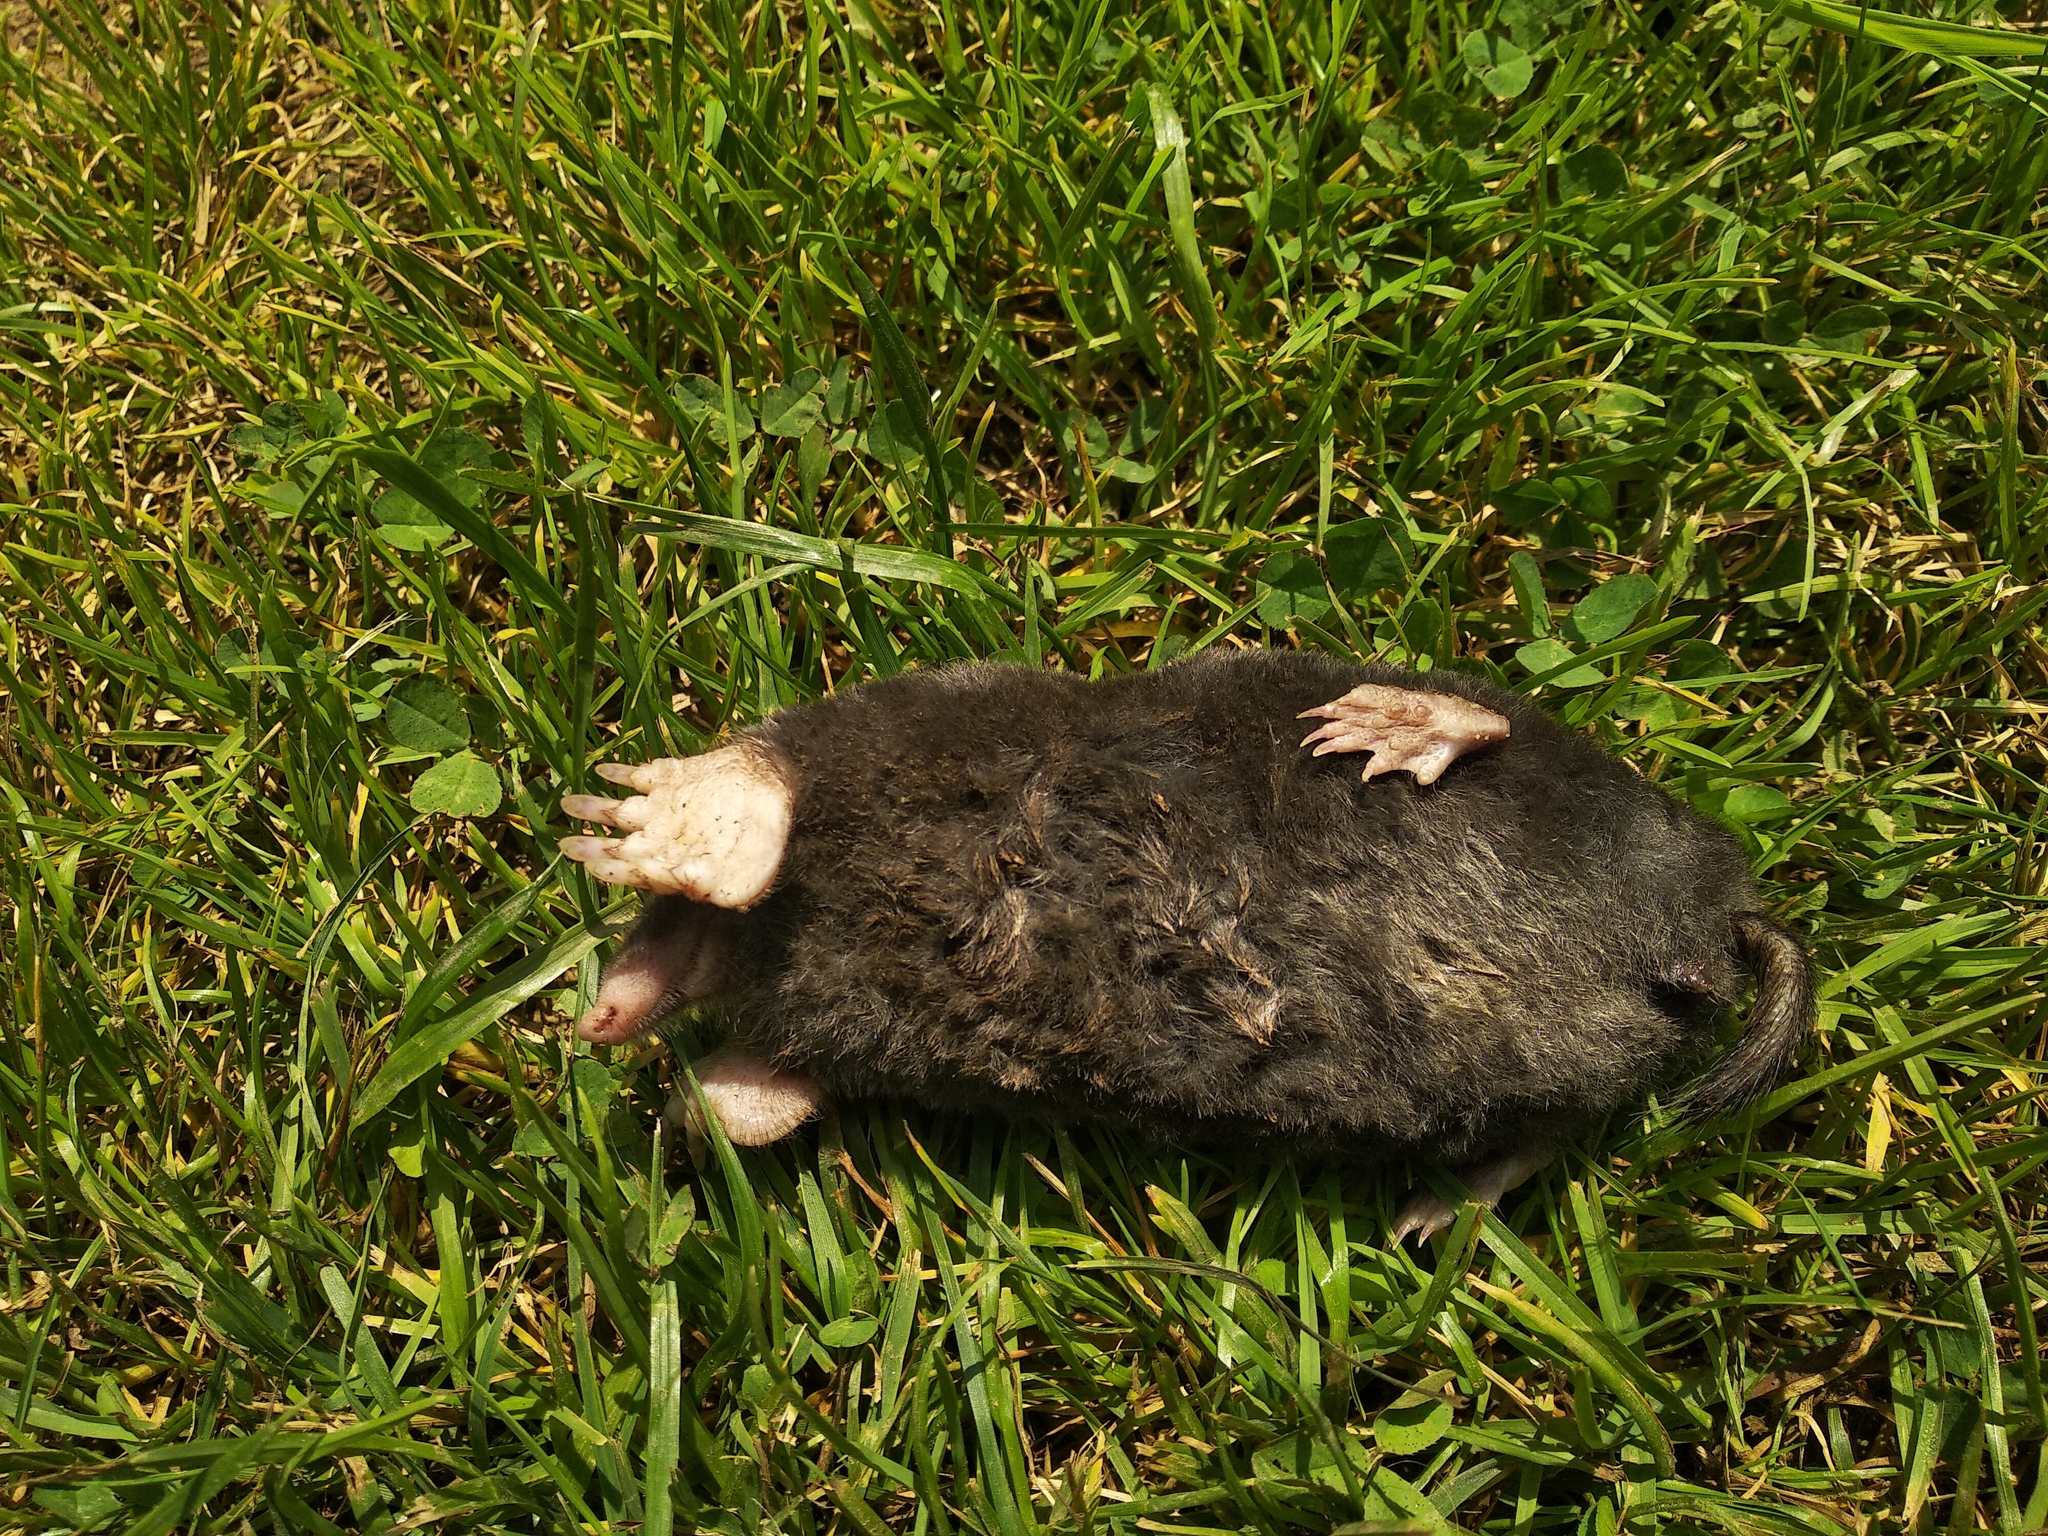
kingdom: Animalia
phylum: Chordata
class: Mammalia
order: Soricomorpha
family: Talpidae
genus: Talpa
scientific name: Talpa europaea
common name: European mole
